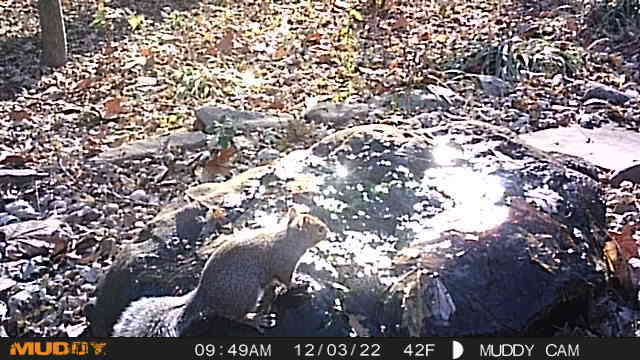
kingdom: Animalia
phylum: Chordata
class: Mammalia
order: Rodentia
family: Sciuridae
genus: Sciurus
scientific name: Sciurus carolinensis
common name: Eastern gray squirrel
